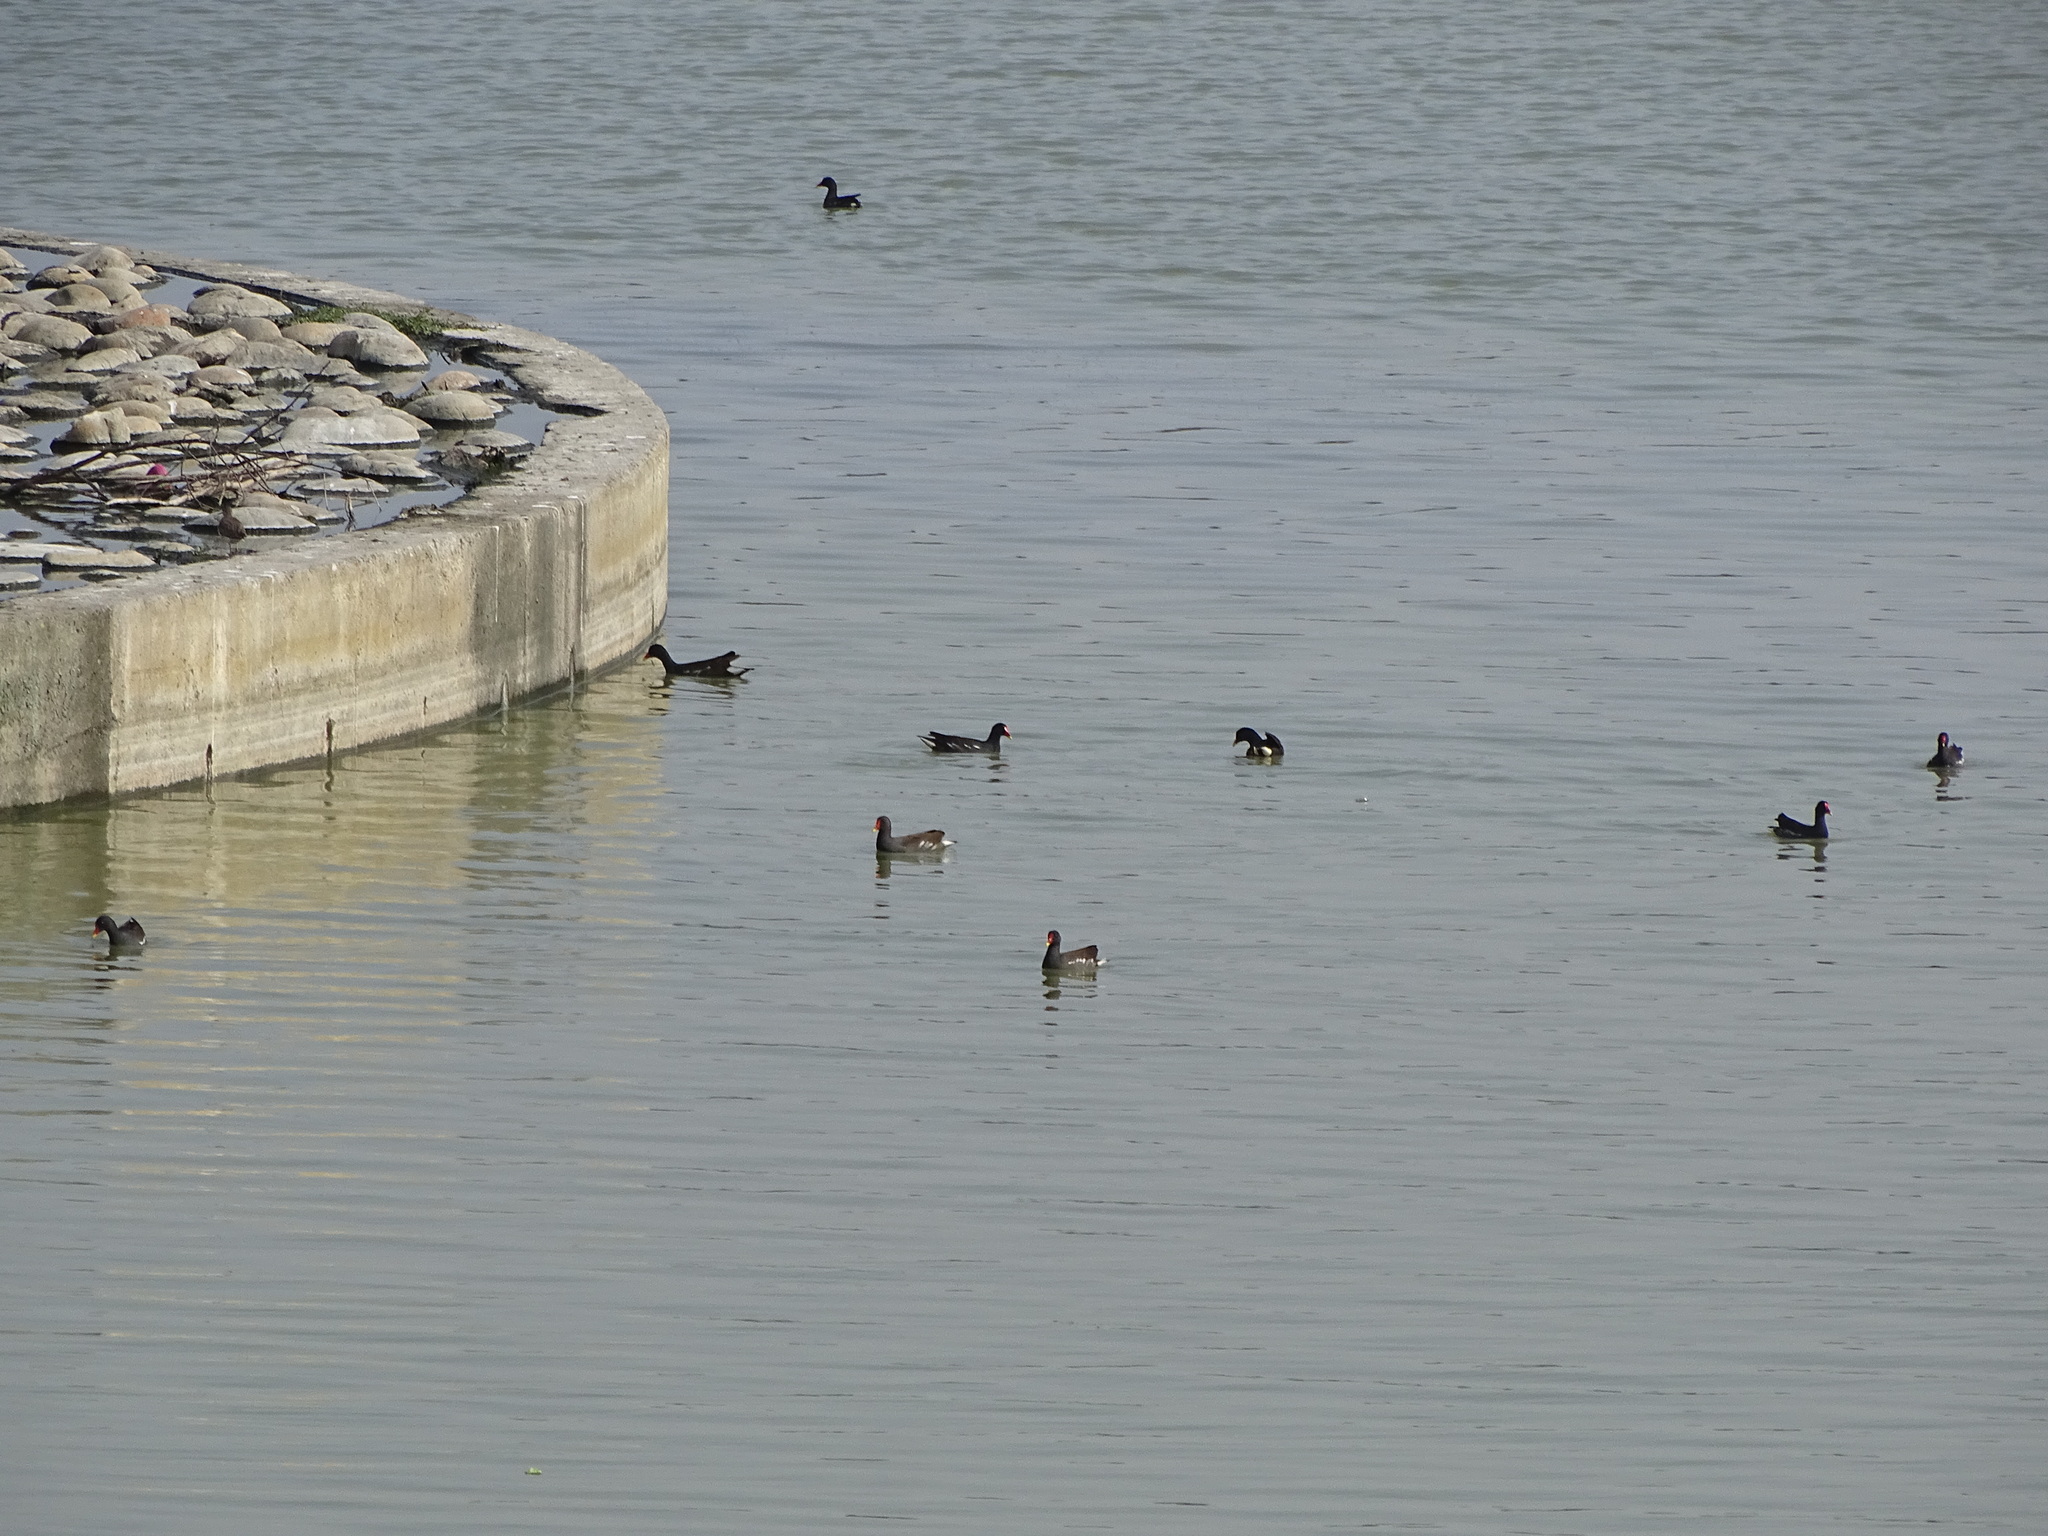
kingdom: Animalia
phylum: Chordata
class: Aves
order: Gruiformes
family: Rallidae
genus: Gallinula
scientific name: Gallinula chloropus
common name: Common moorhen
